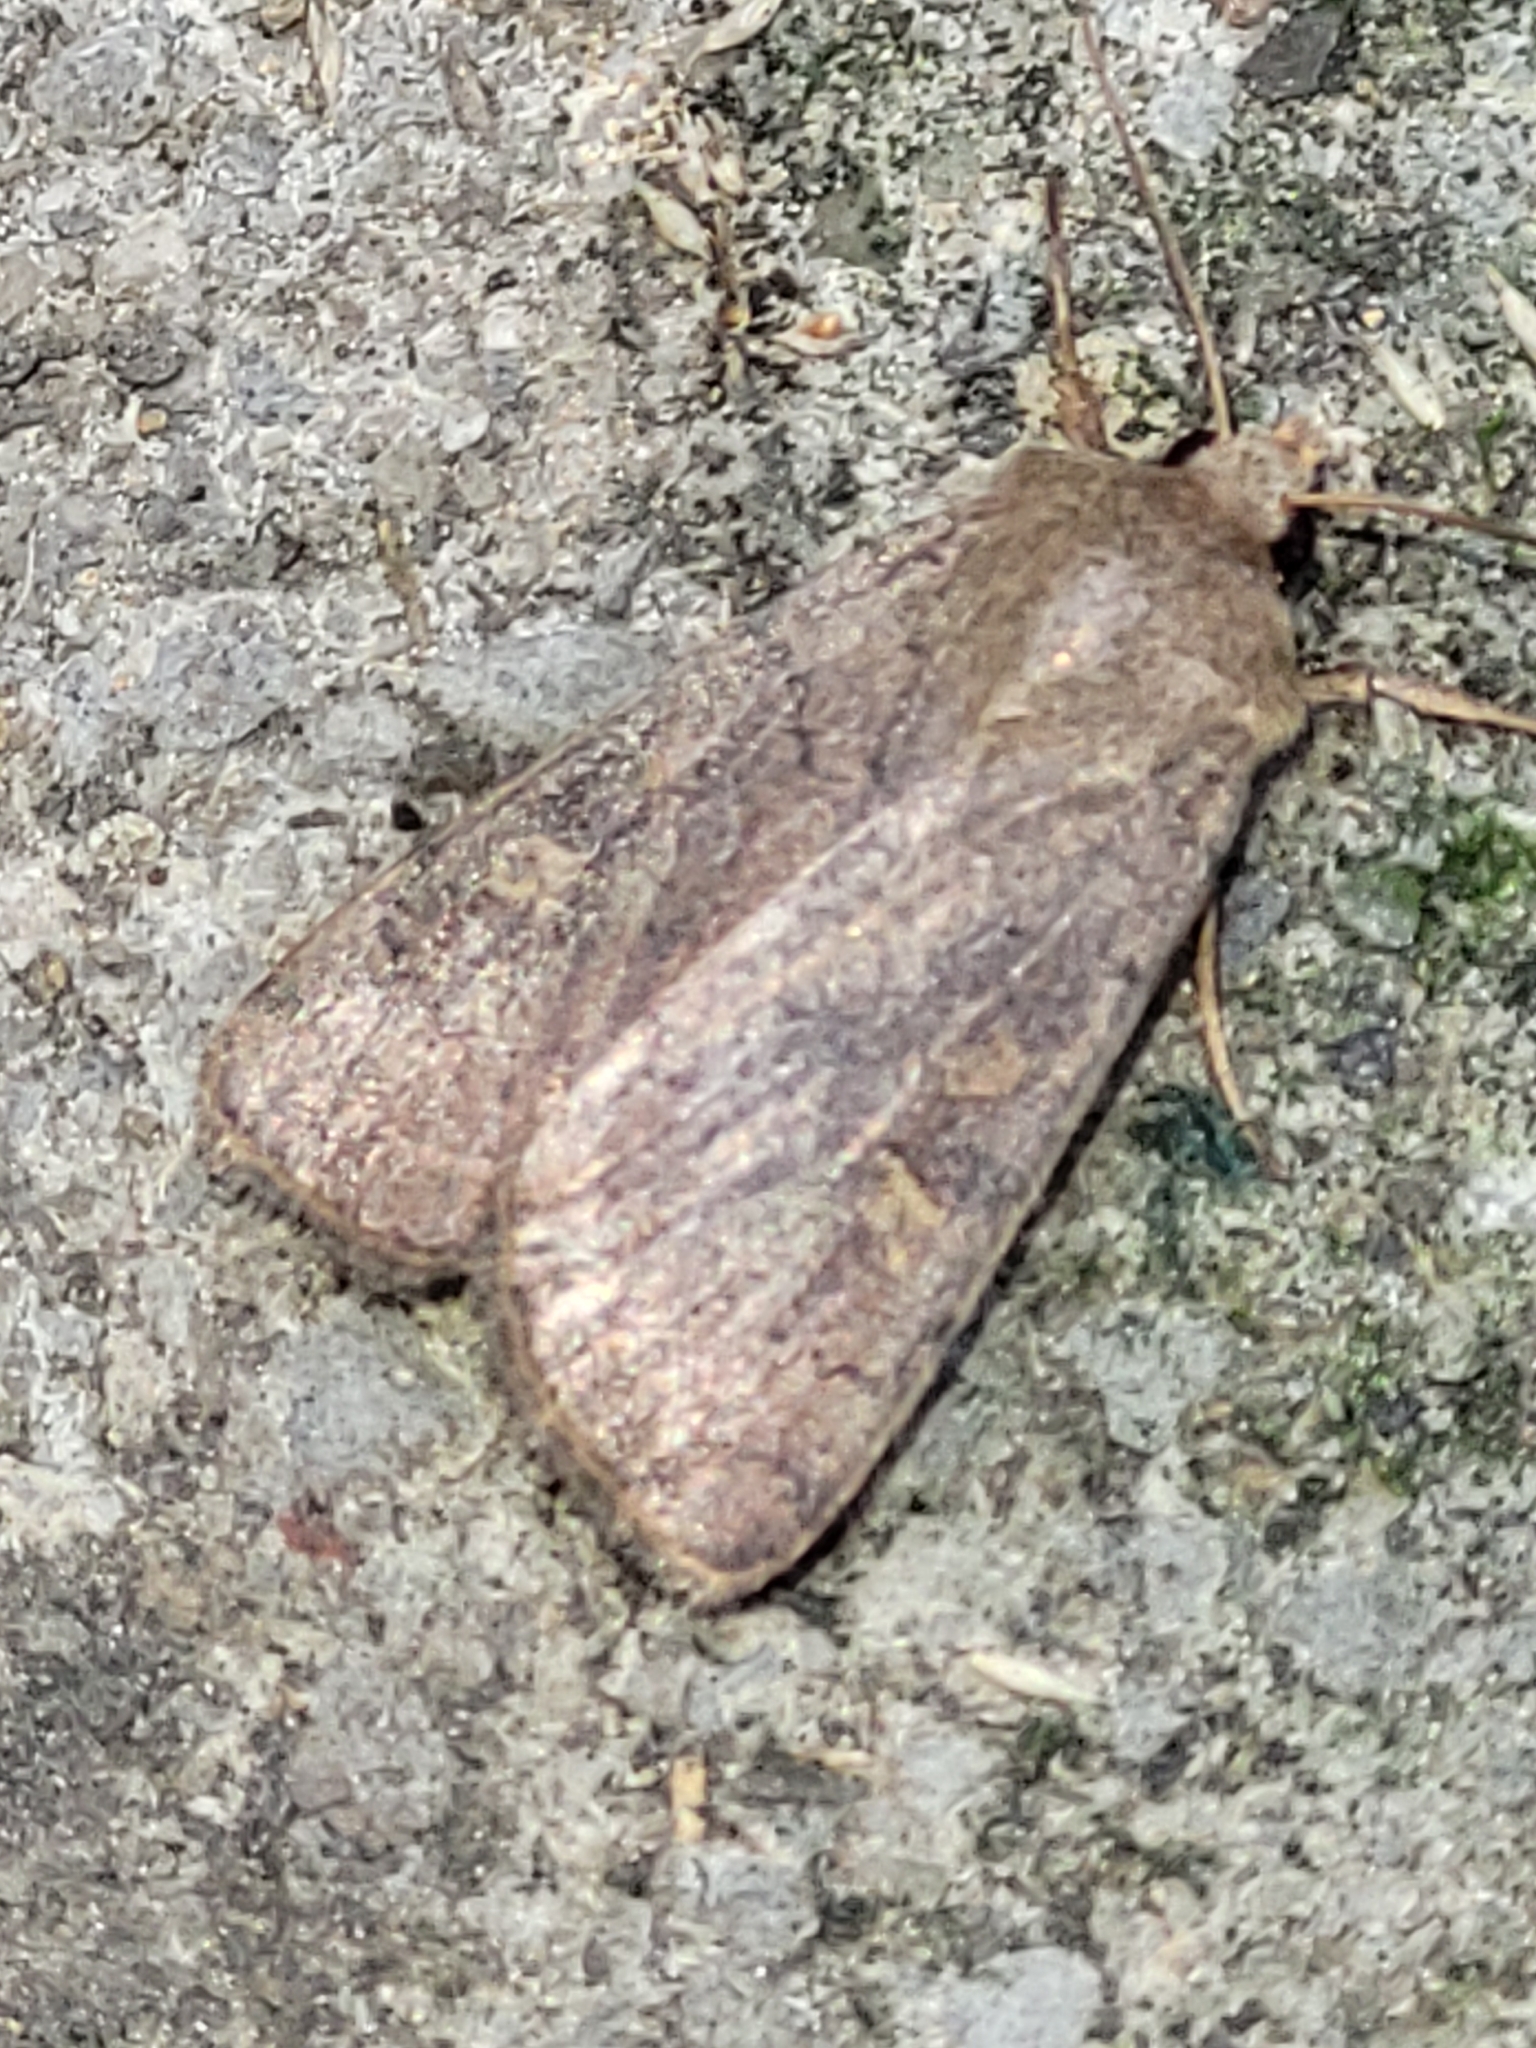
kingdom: Animalia
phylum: Arthropoda
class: Insecta
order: Lepidoptera
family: Noctuidae
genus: Xestia
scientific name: Xestia xanthographa
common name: Square-spot rustic
